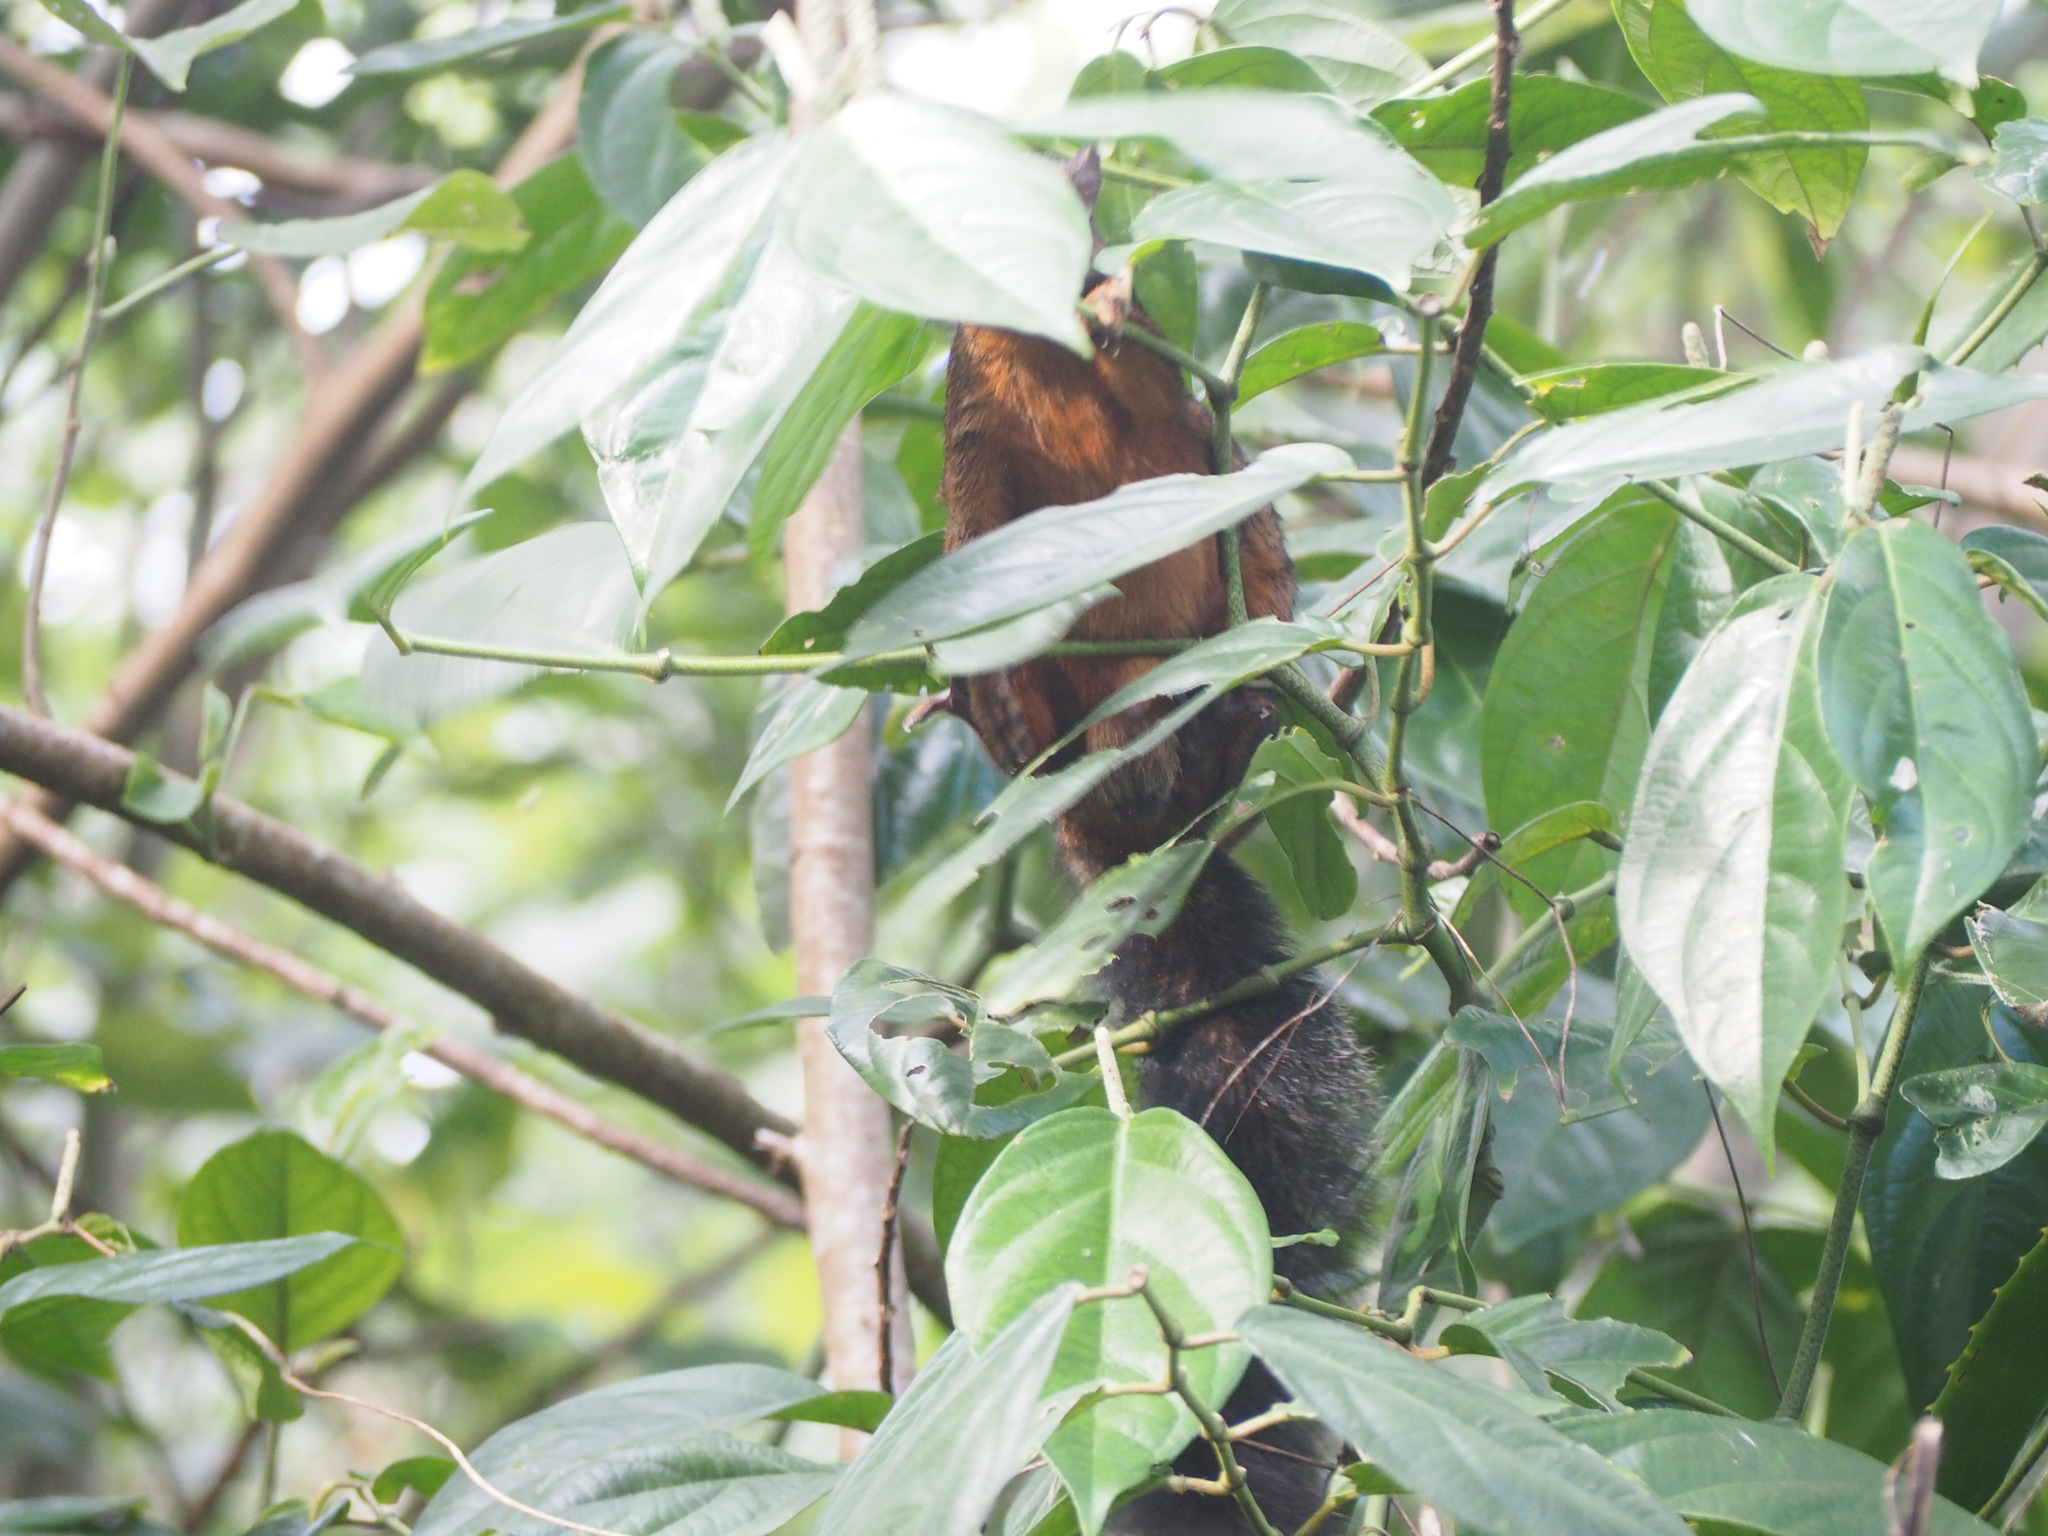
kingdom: Animalia
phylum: Chordata
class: Mammalia
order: Rodentia
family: Sciuridae
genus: Sciurus
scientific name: Sciurus variegatoides
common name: Variegated squirrel
